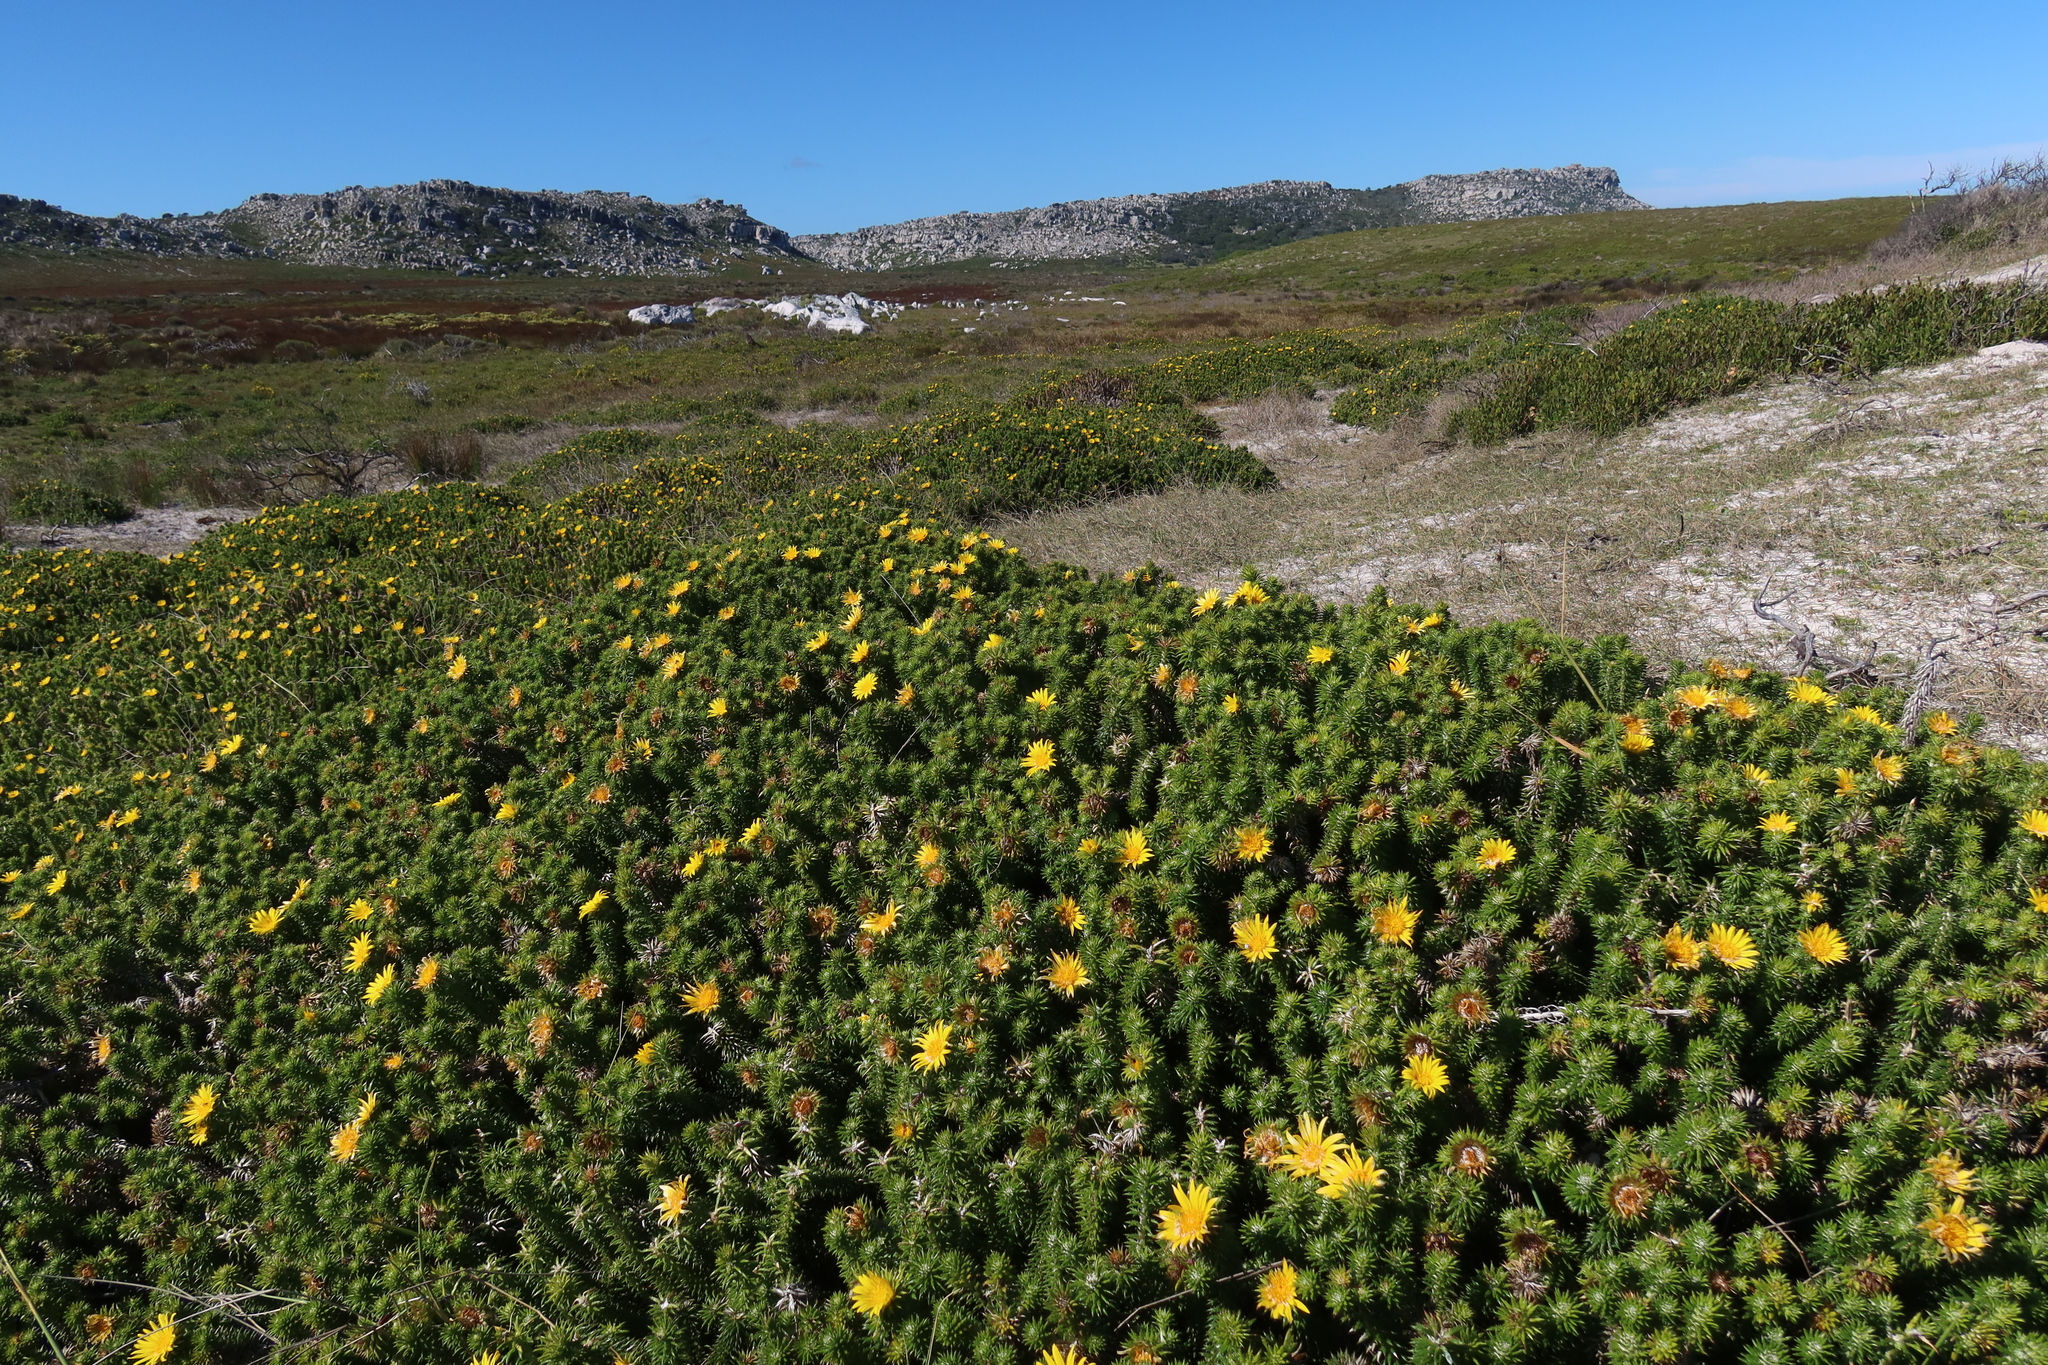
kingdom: Plantae
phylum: Tracheophyta
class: Magnoliopsida
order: Asterales
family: Asteraceae
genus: Cullumia
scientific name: Cullumia squarrosa
